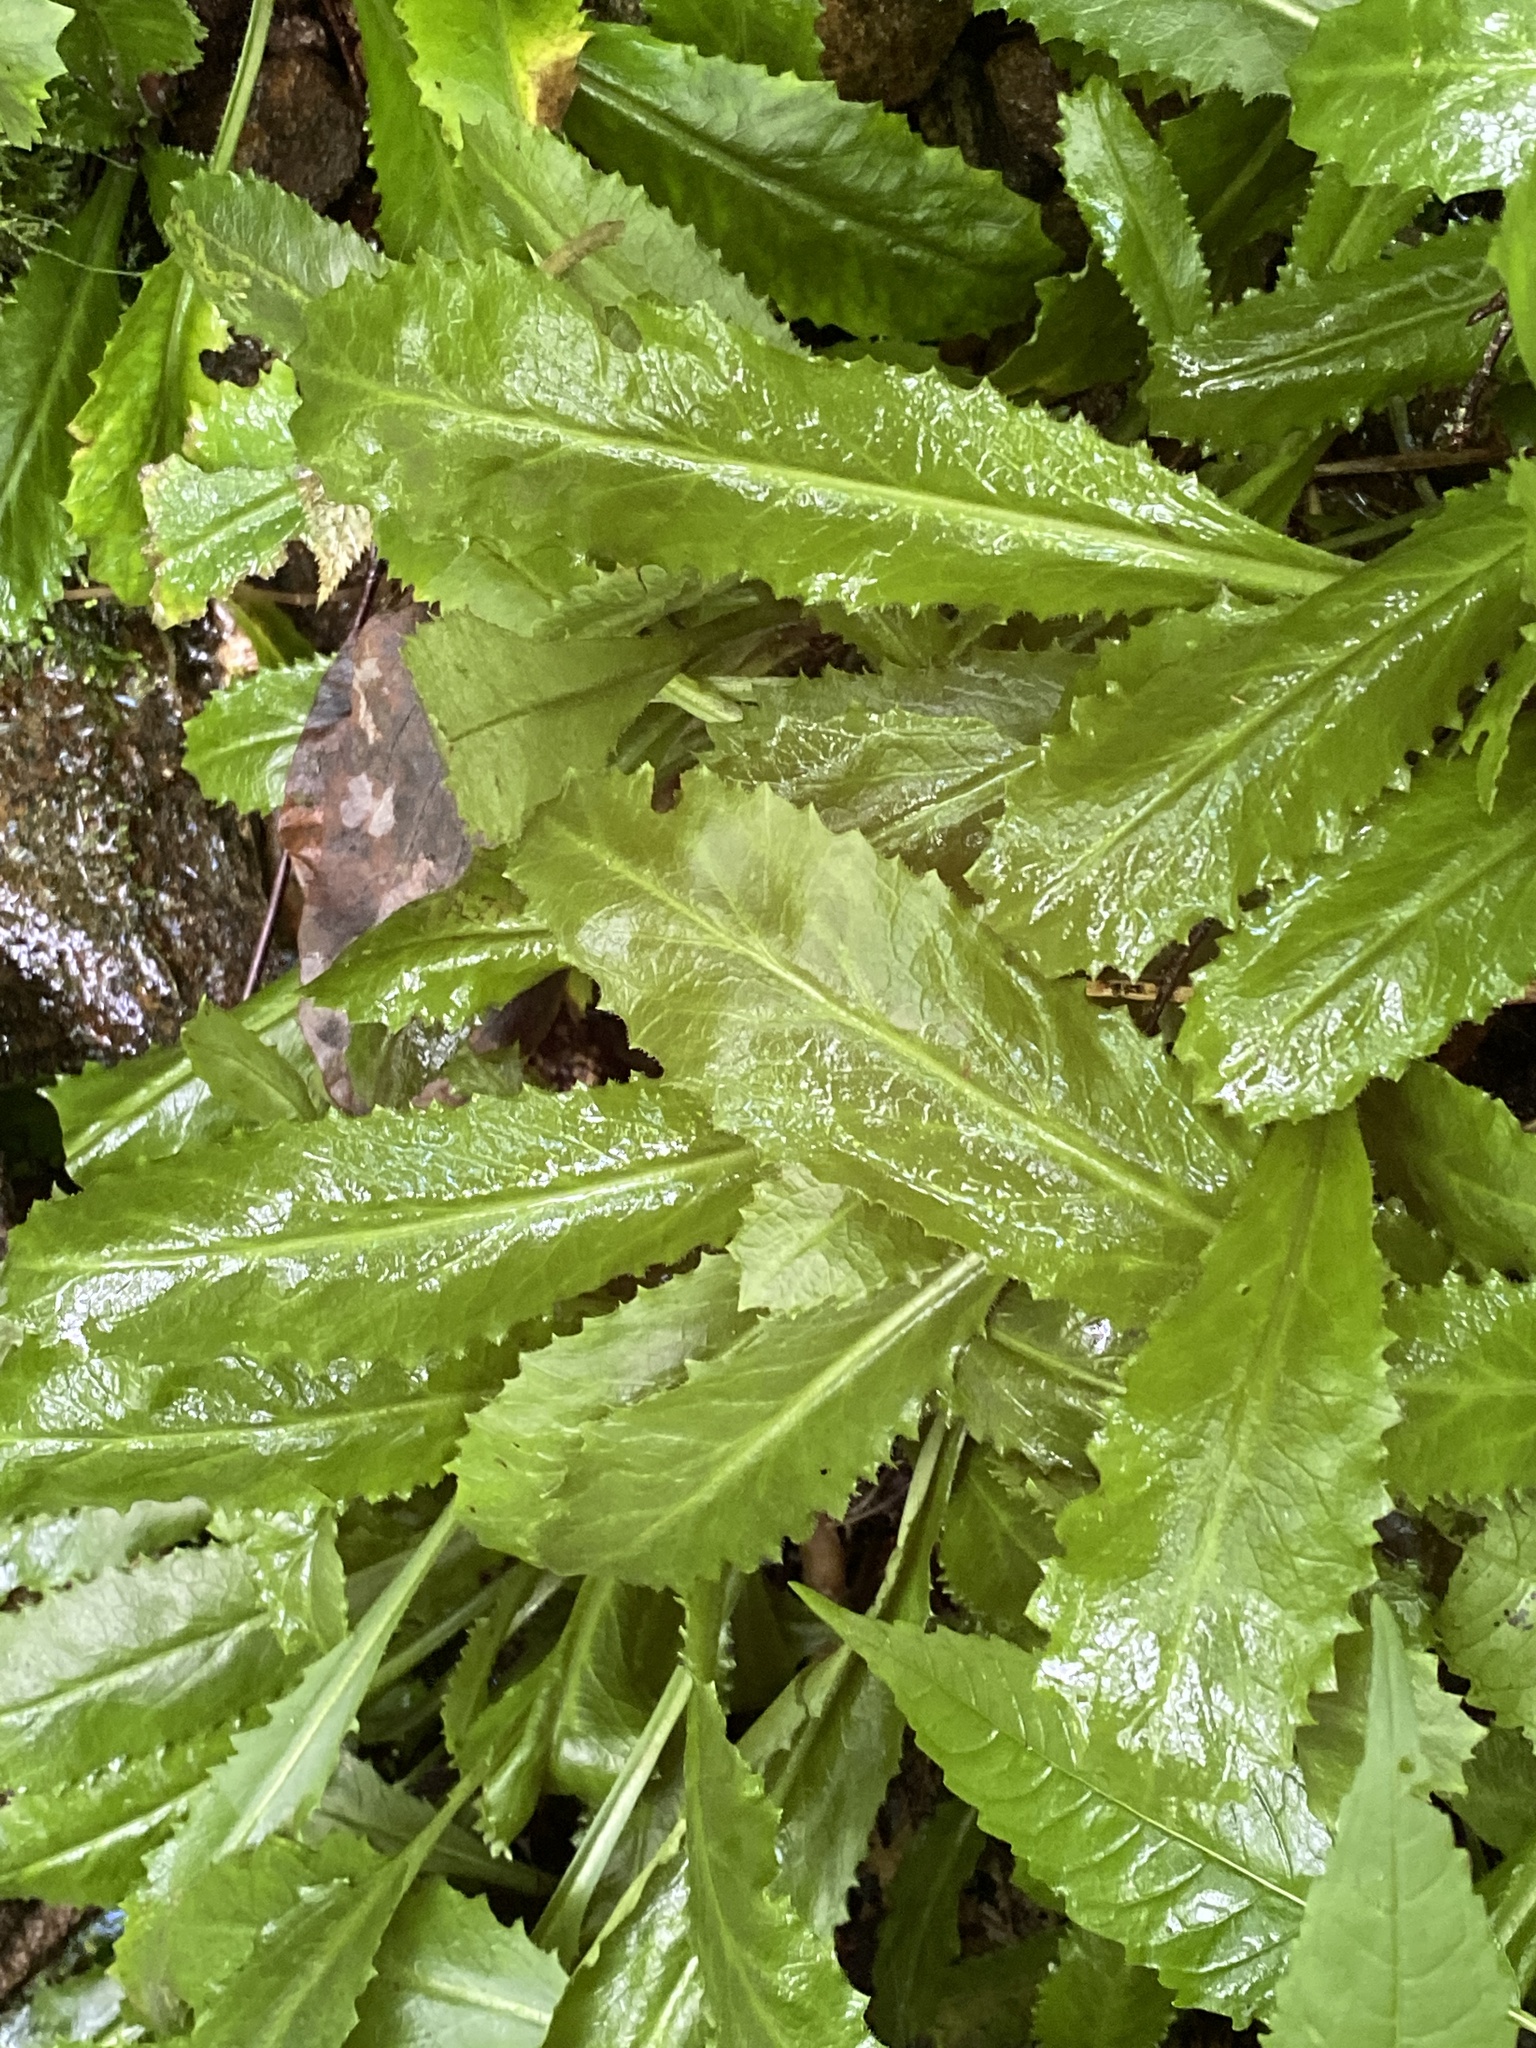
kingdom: Plantae
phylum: Tracheophyta
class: Magnoliopsida
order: Saxifragales
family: Saxifragaceae
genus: Micranthes
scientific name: Micranthes micranthidifolia
